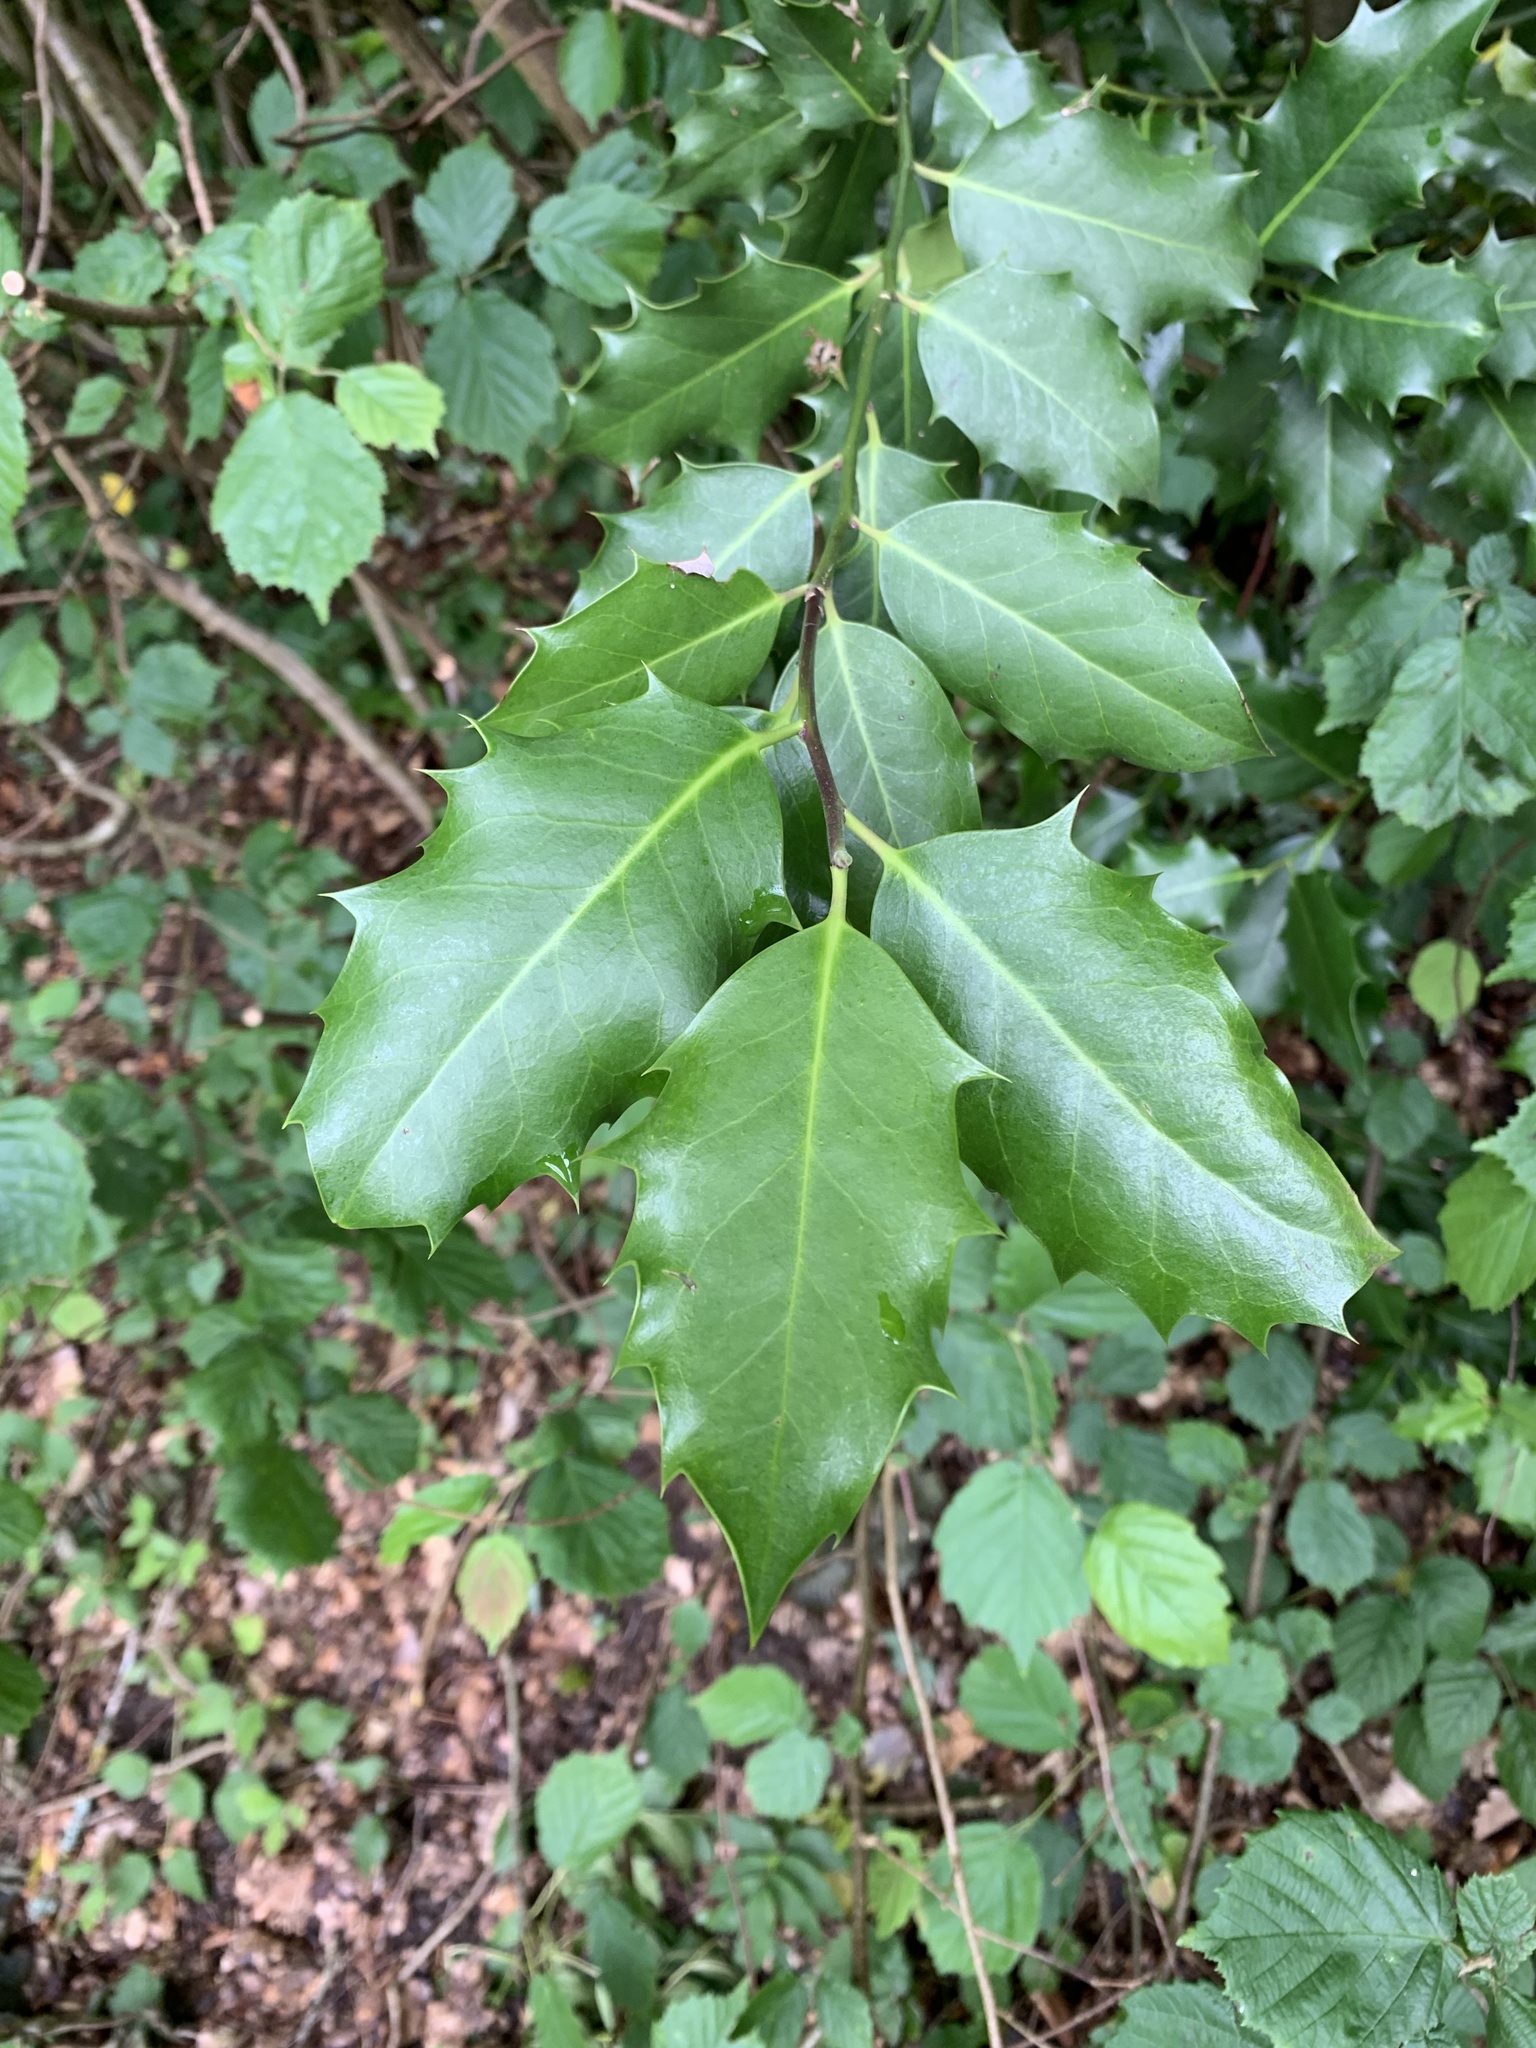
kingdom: Plantae
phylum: Tracheophyta
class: Magnoliopsida
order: Aquifoliales
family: Aquifoliaceae
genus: Ilex
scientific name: Ilex aquifolium
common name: English holly
